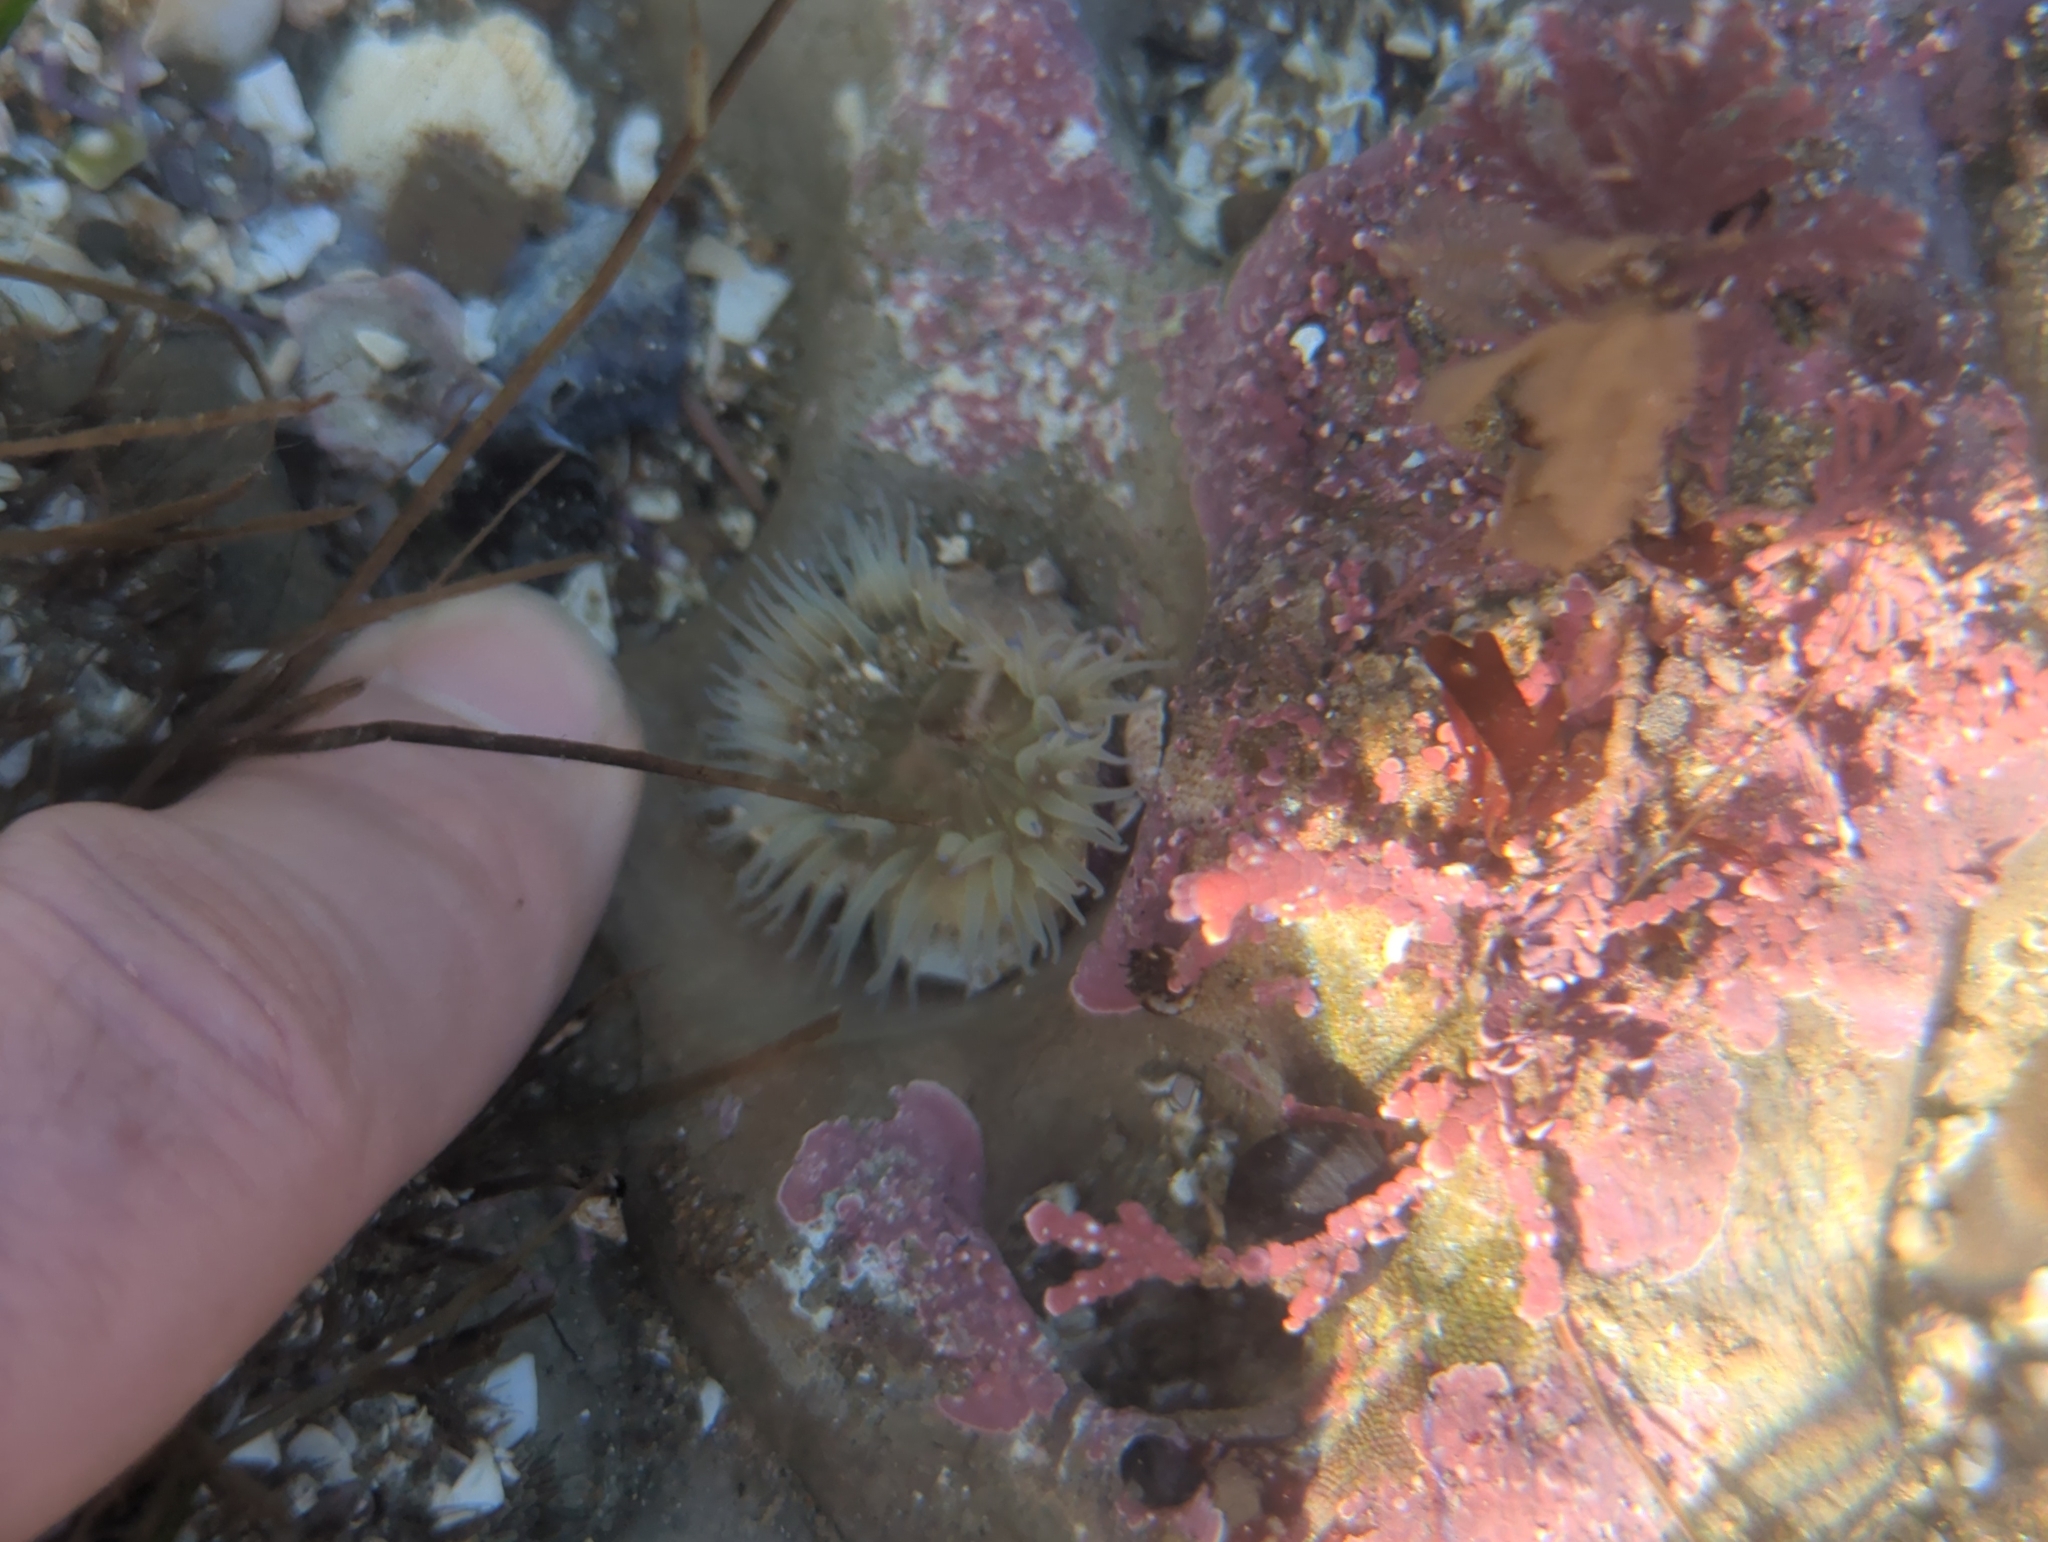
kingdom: Animalia
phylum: Cnidaria
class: Anthozoa
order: Actiniaria
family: Actiniidae
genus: Anthopleura
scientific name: Anthopleura sola
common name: Sun anemone
